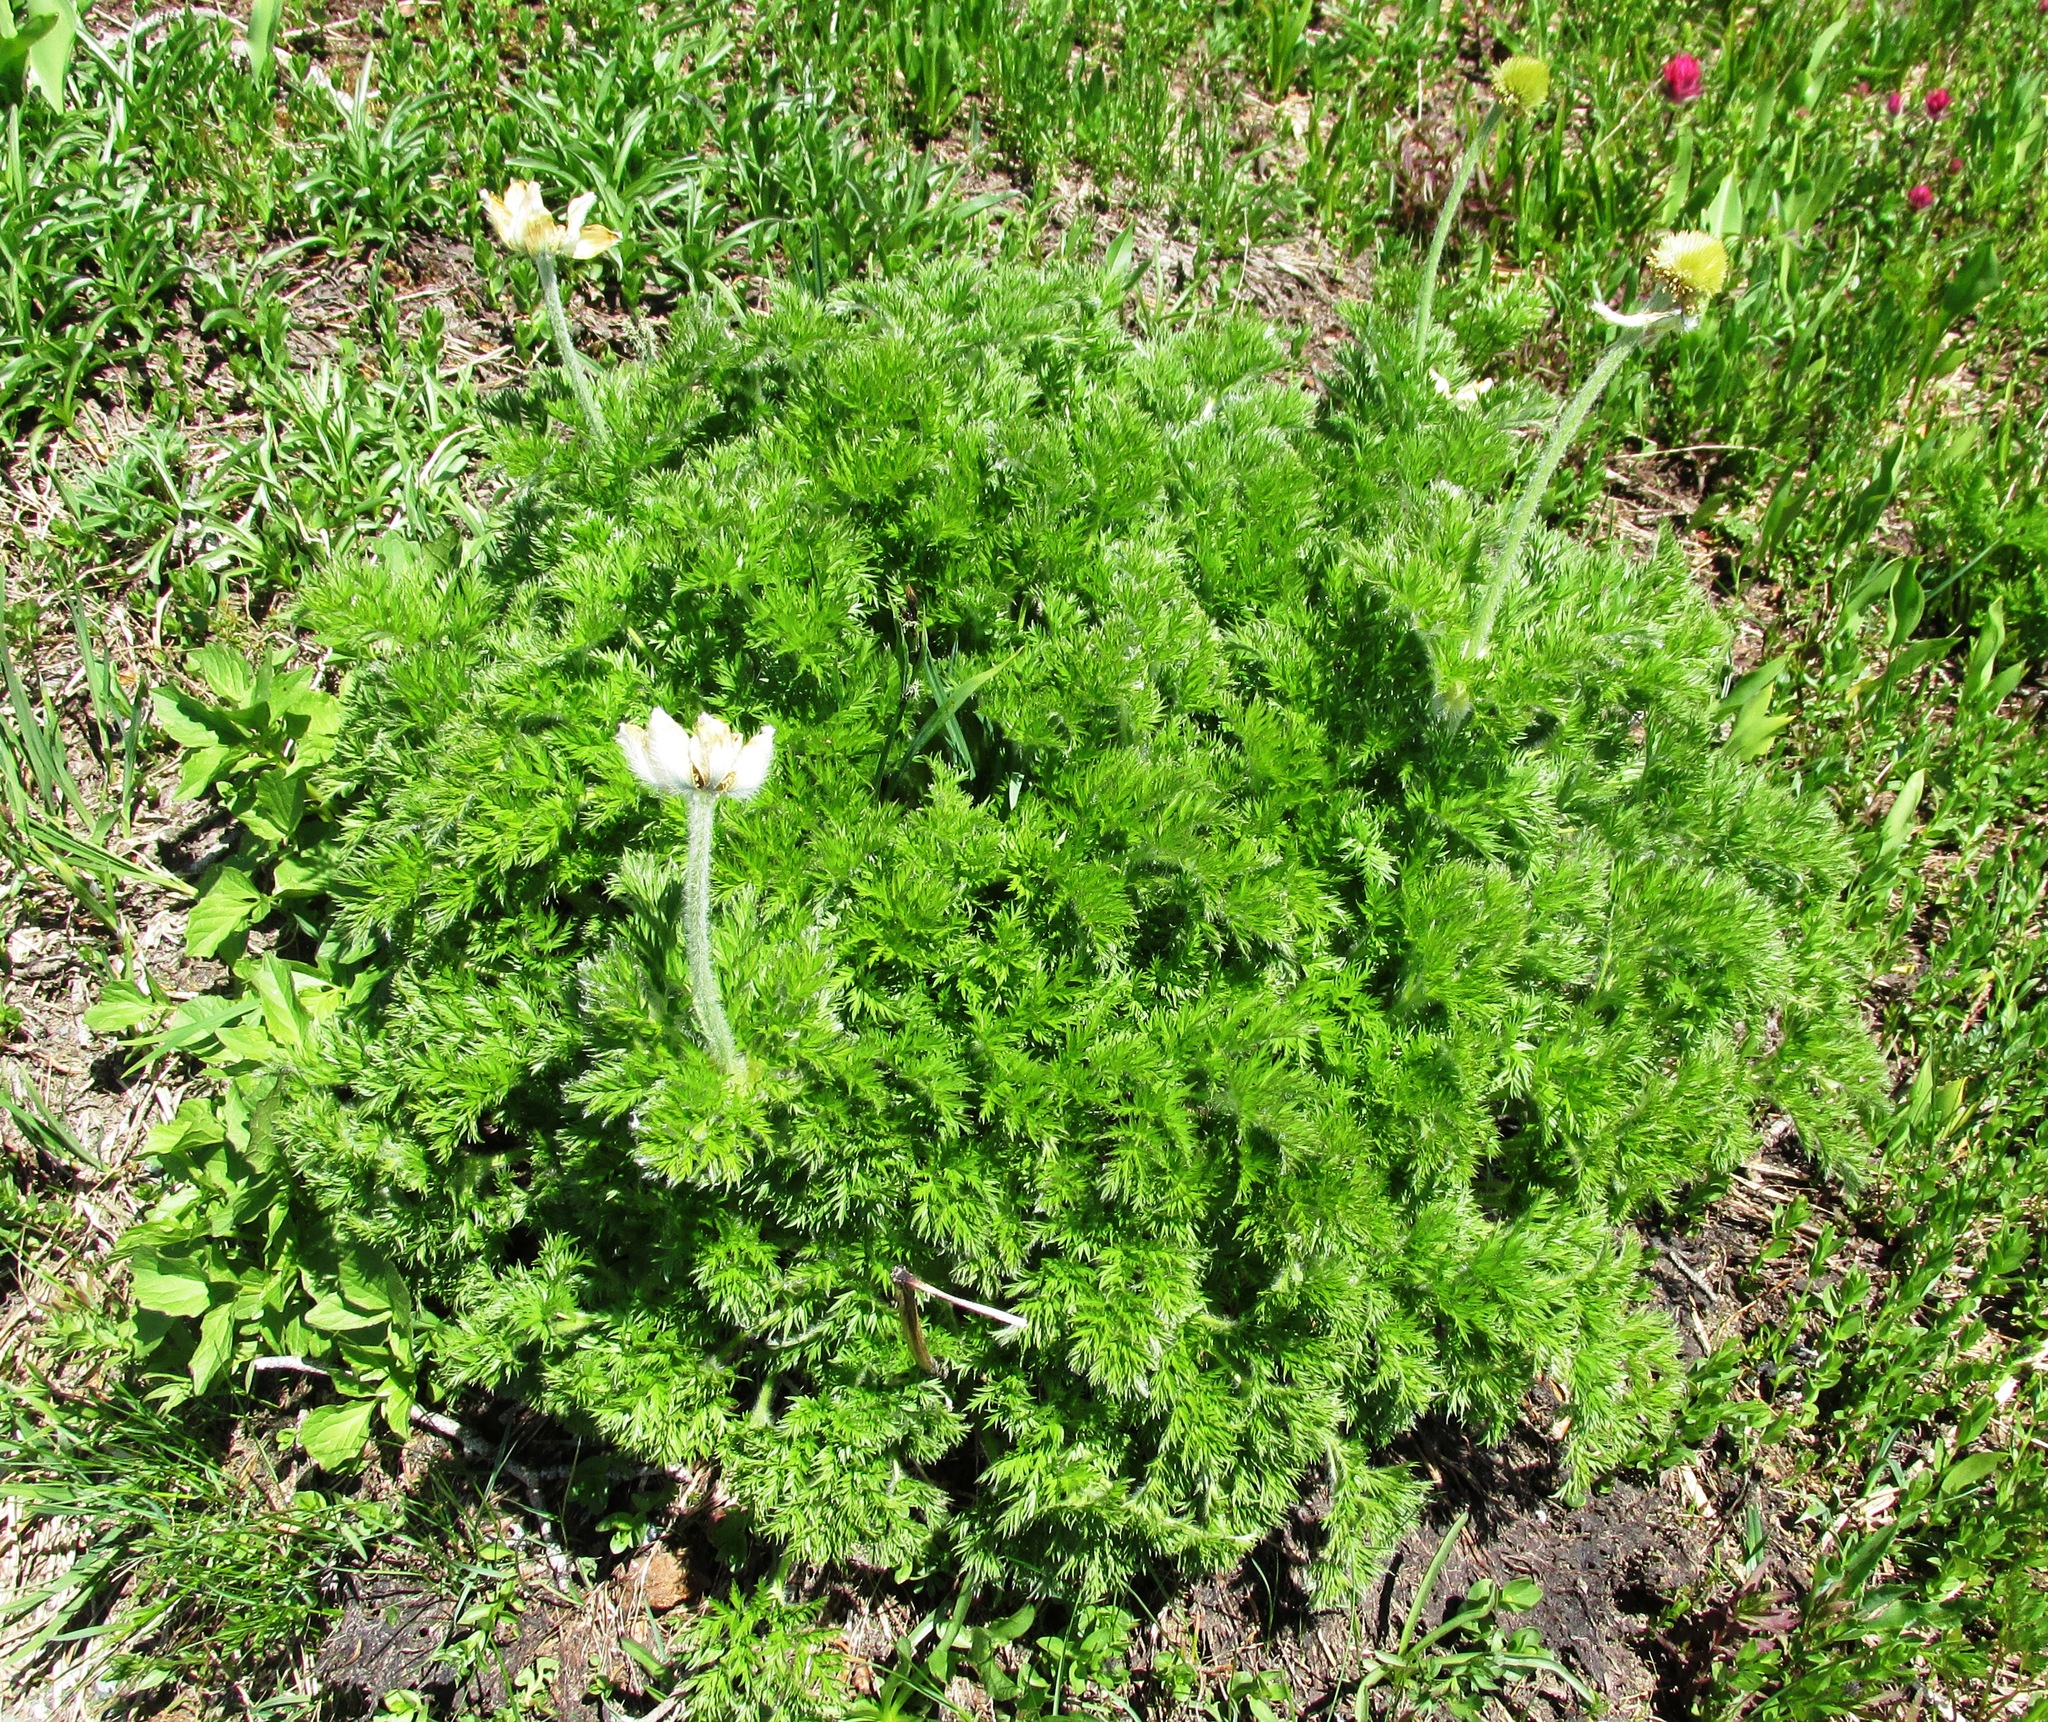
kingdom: Plantae
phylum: Tracheophyta
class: Magnoliopsida
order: Ranunculales
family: Ranunculaceae
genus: Pulsatilla
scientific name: Pulsatilla occidentalis
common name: Mountain pasqueflower
